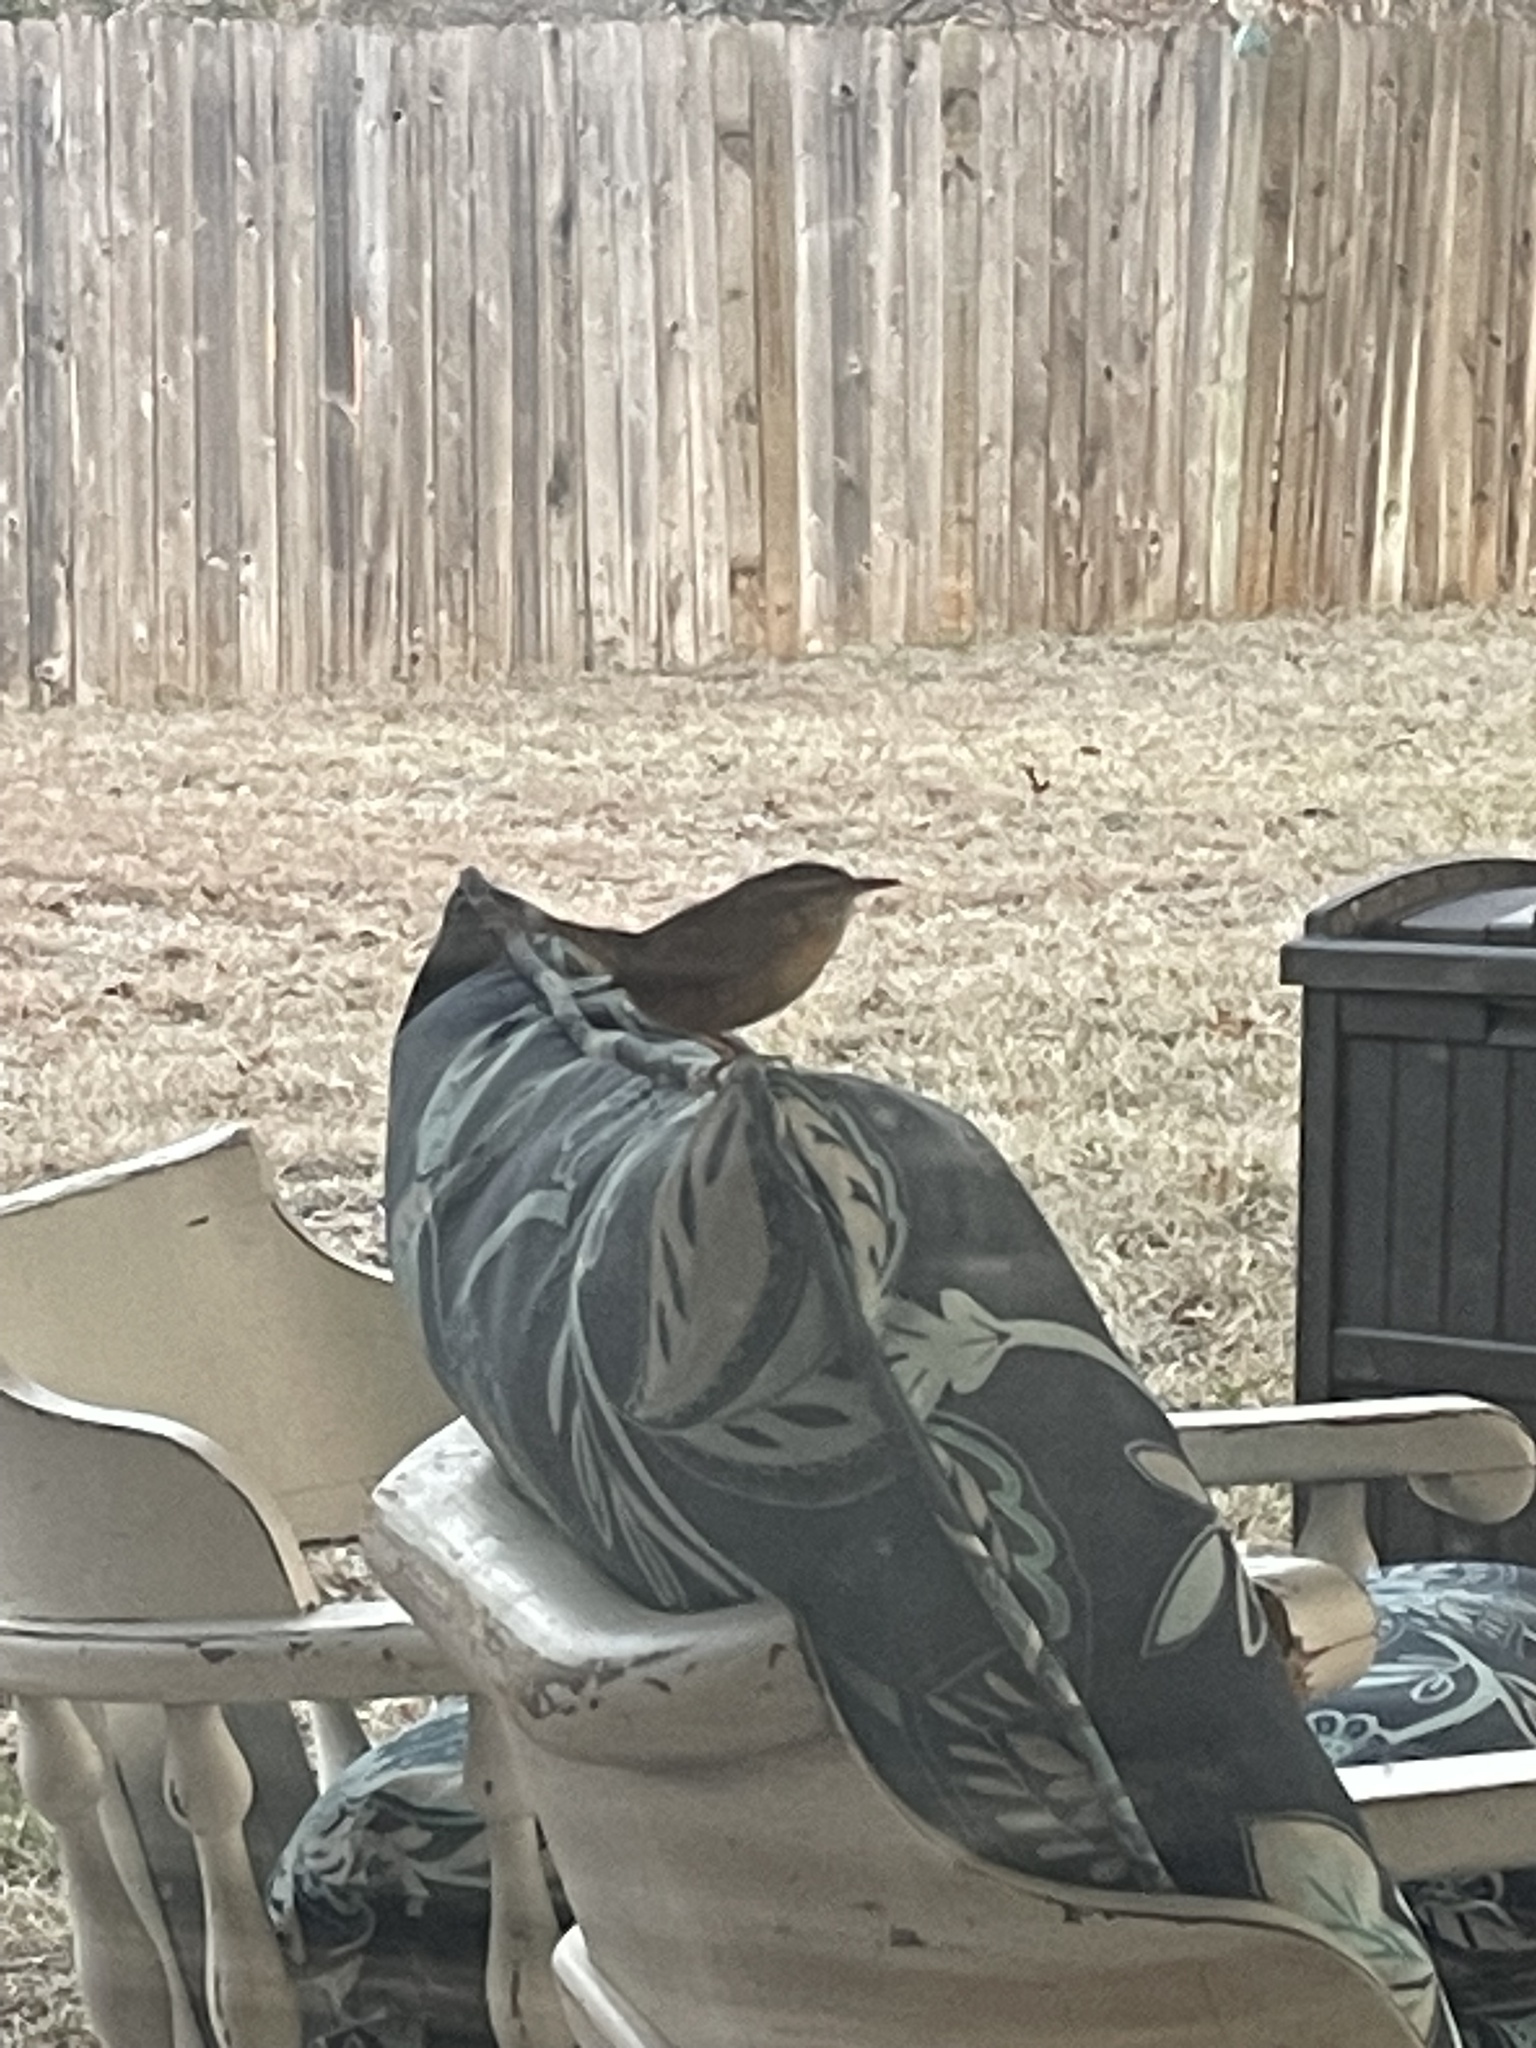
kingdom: Animalia
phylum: Chordata
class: Aves
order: Passeriformes
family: Troglodytidae
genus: Thryothorus
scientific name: Thryothorus ludovicianus
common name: Carolina wren
